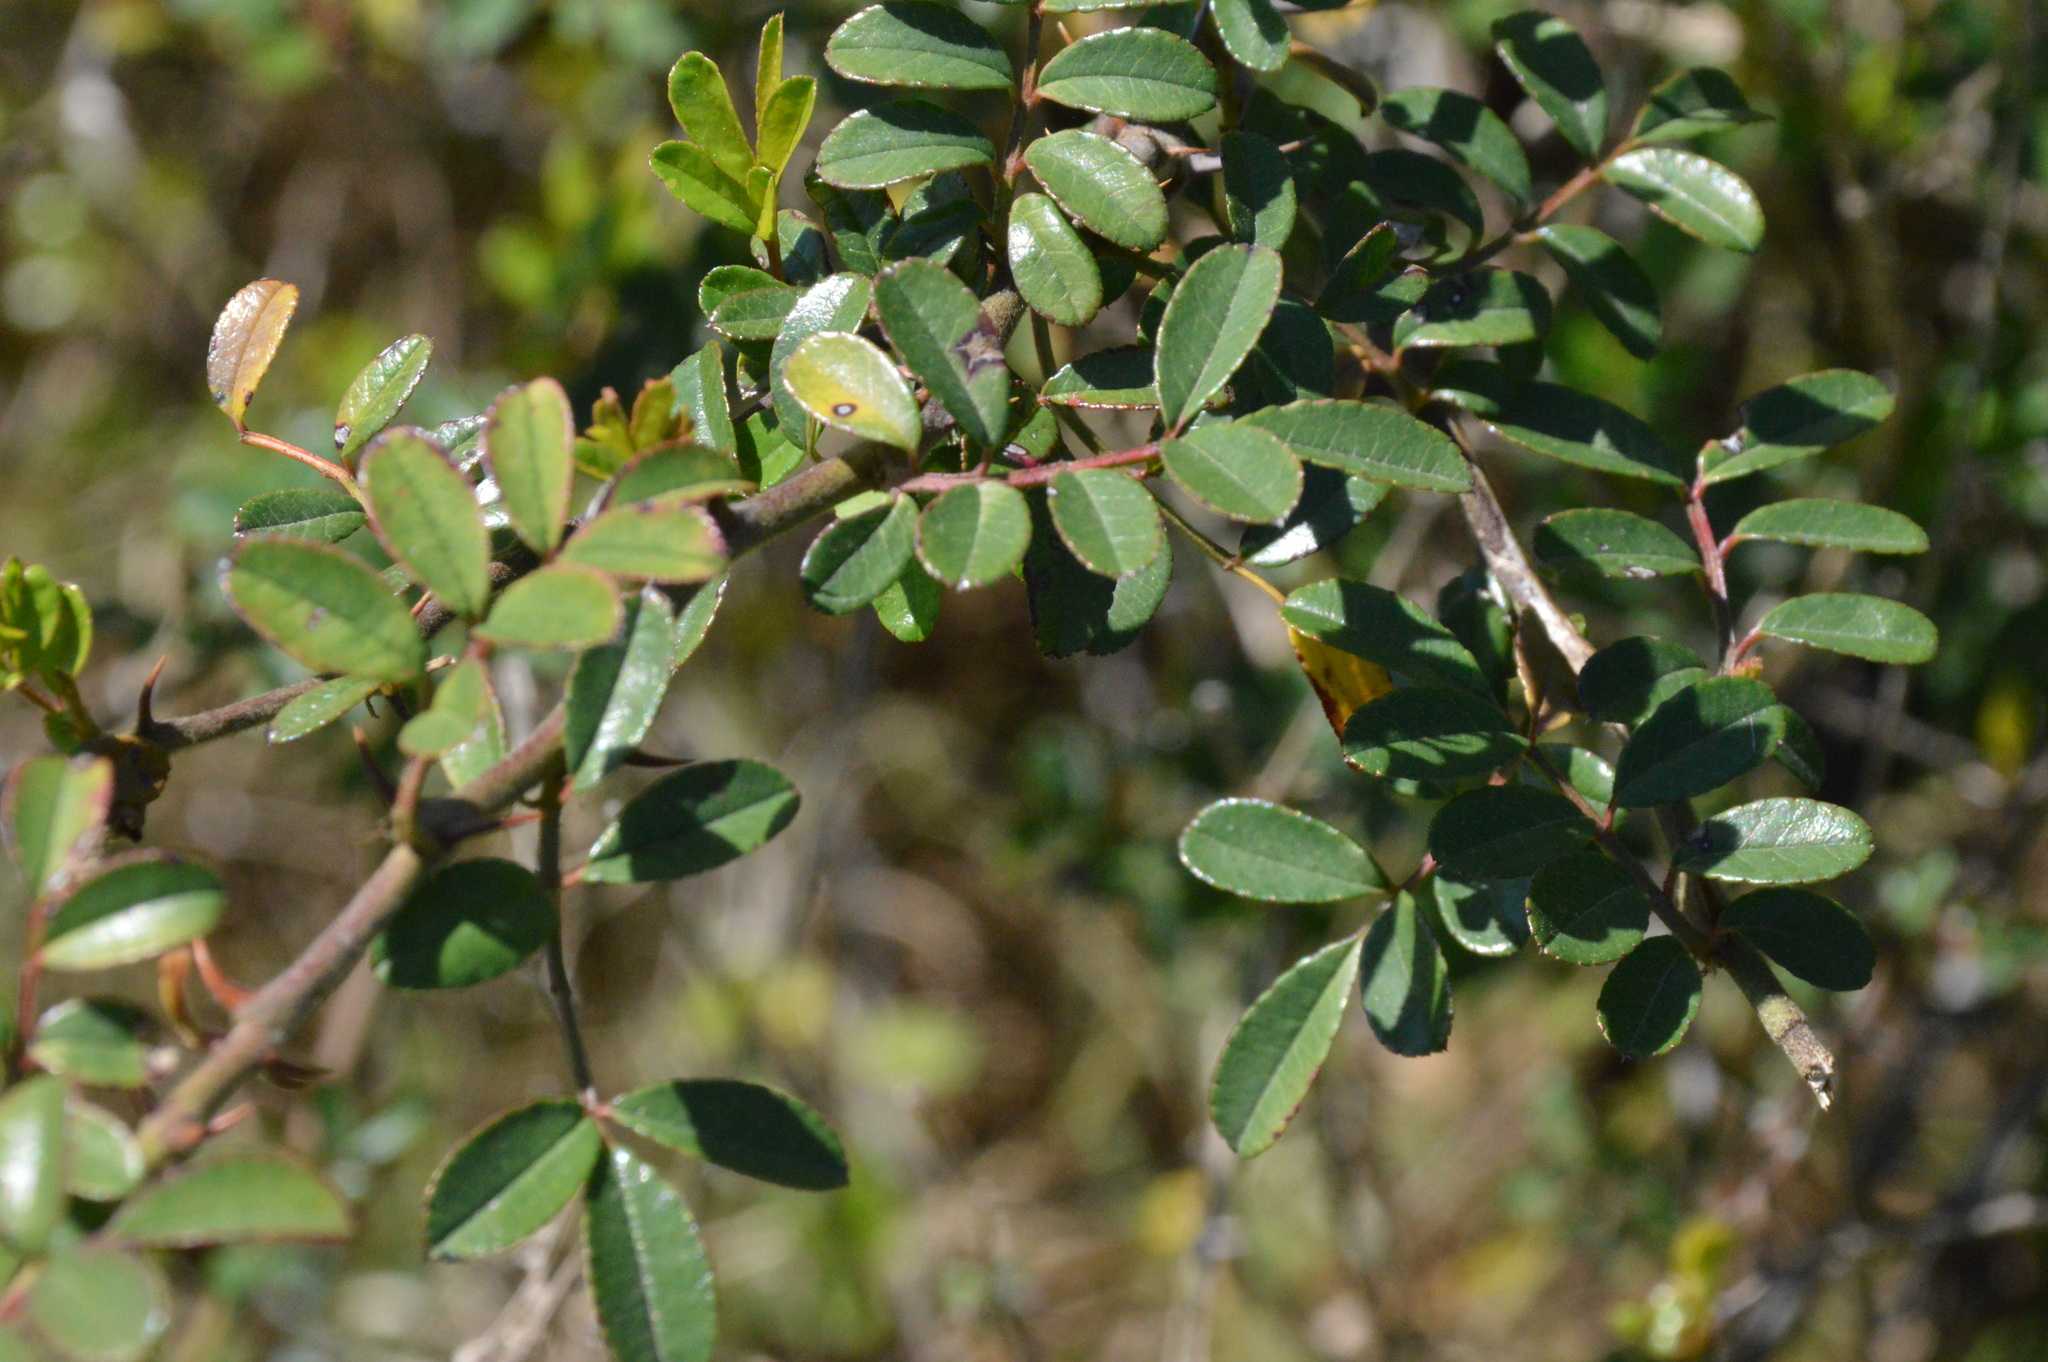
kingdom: Plantae
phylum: Tracheophyta
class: Magnoliopsida
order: Rosales
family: Rosaceae
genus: Rosa
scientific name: Rosa bracteata
